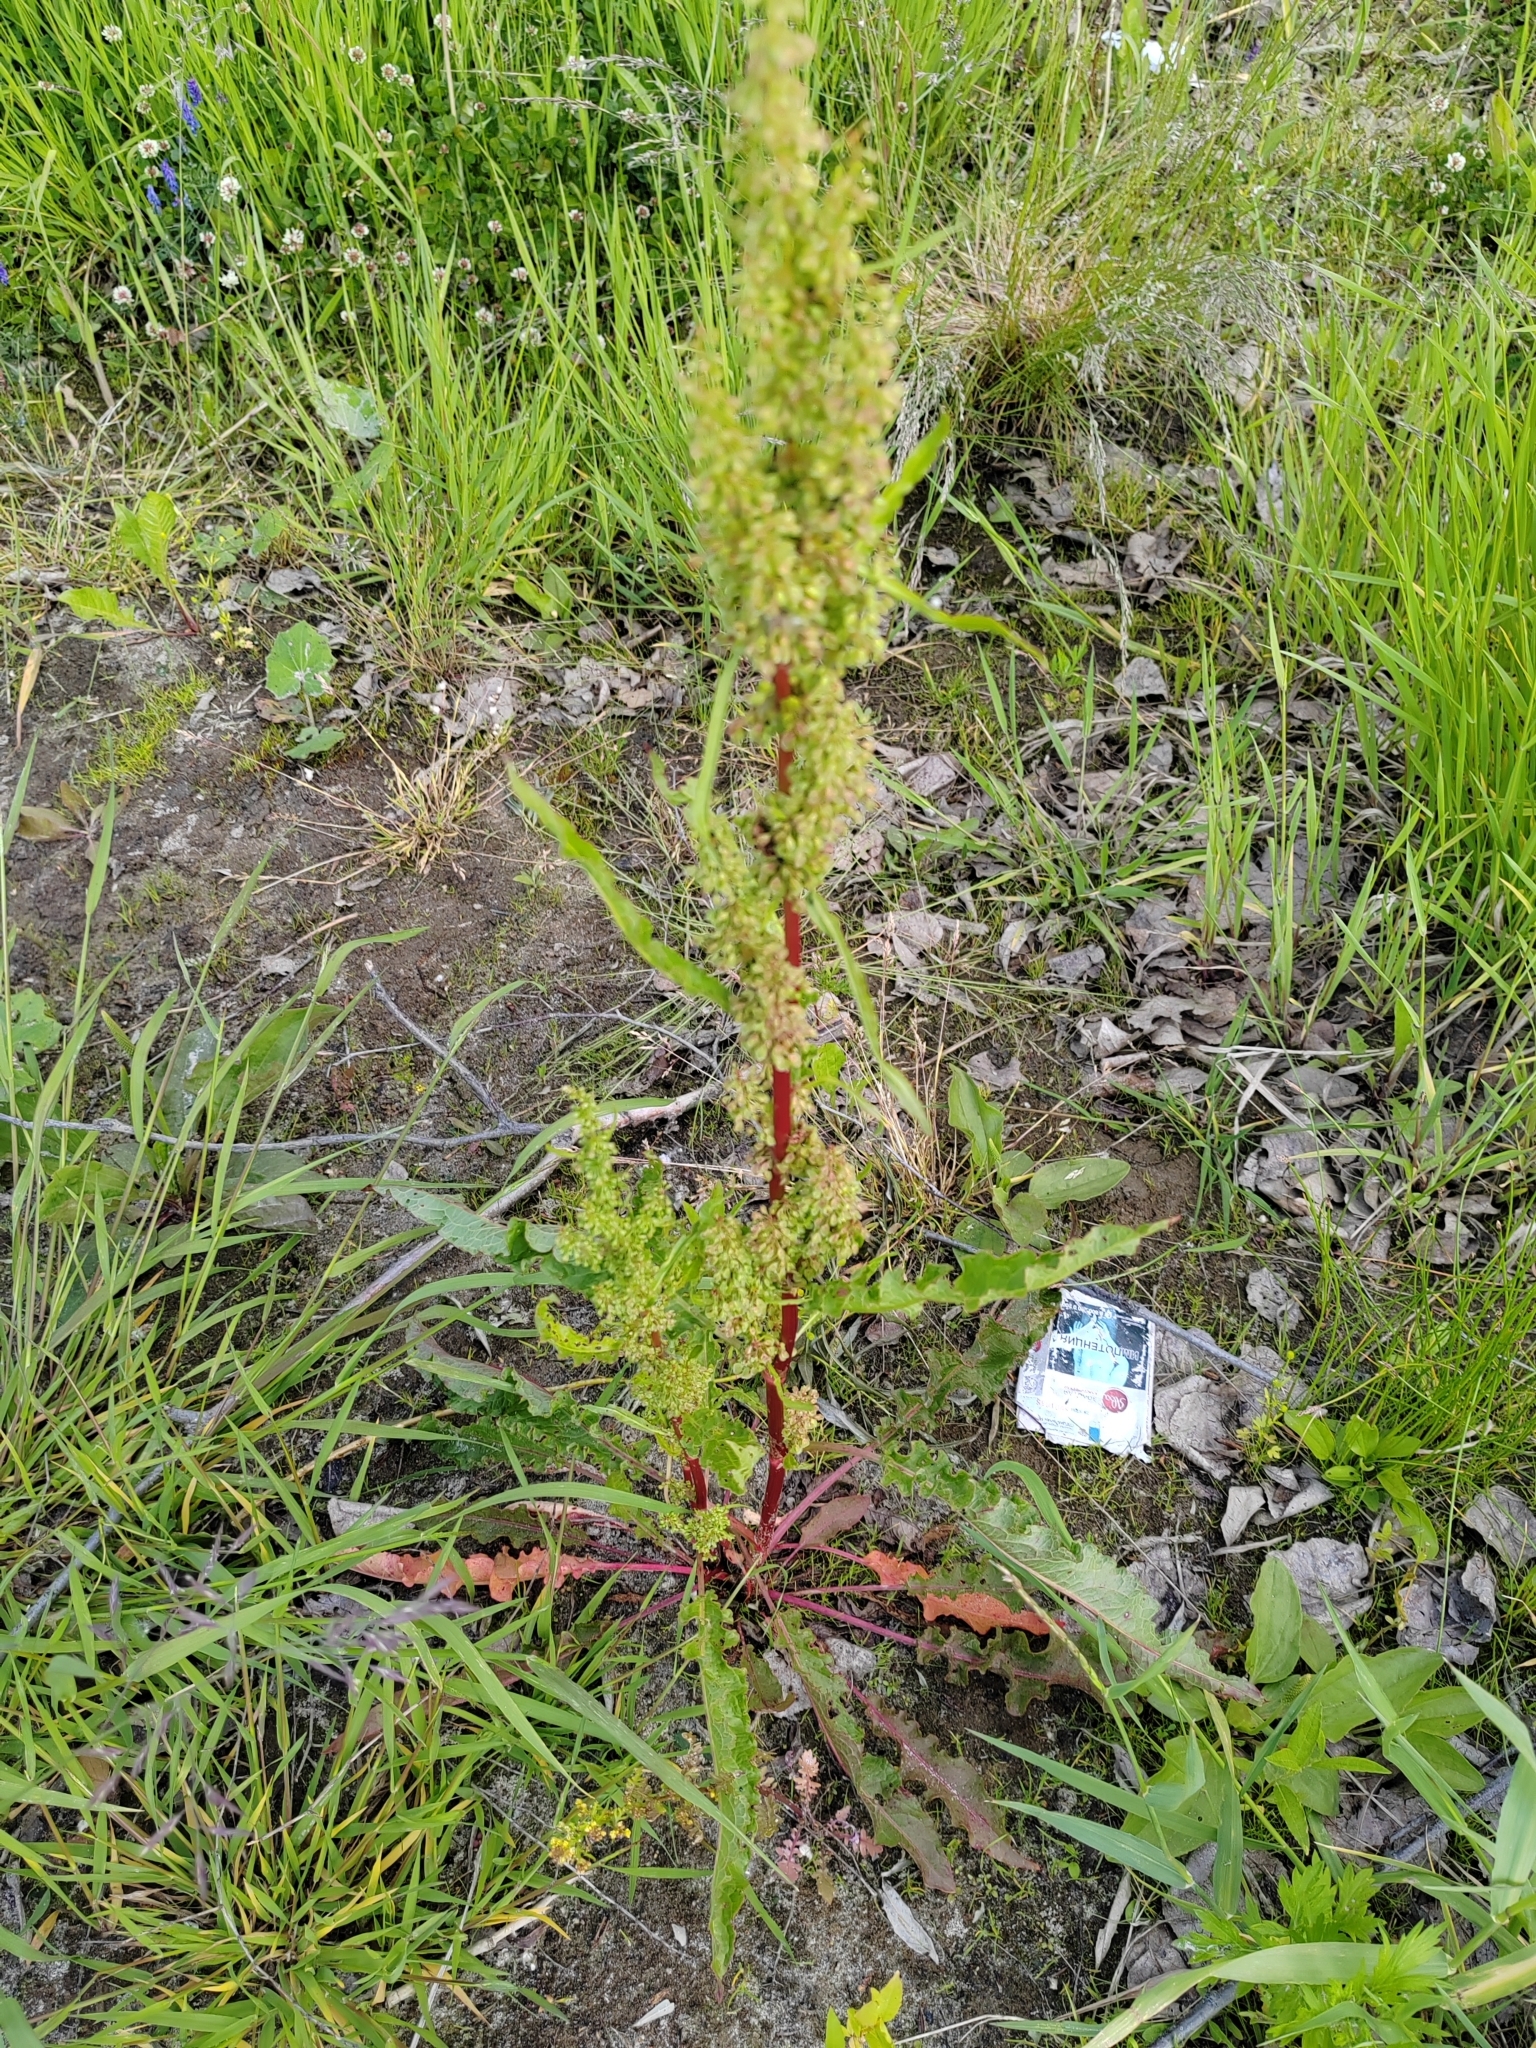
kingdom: Plantae
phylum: Tracheophyta
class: Magnoliopsida
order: Caryophyllales
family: Polygonaceae
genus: Rumex
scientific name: Rumex pseudonatronatus
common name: Field dock
